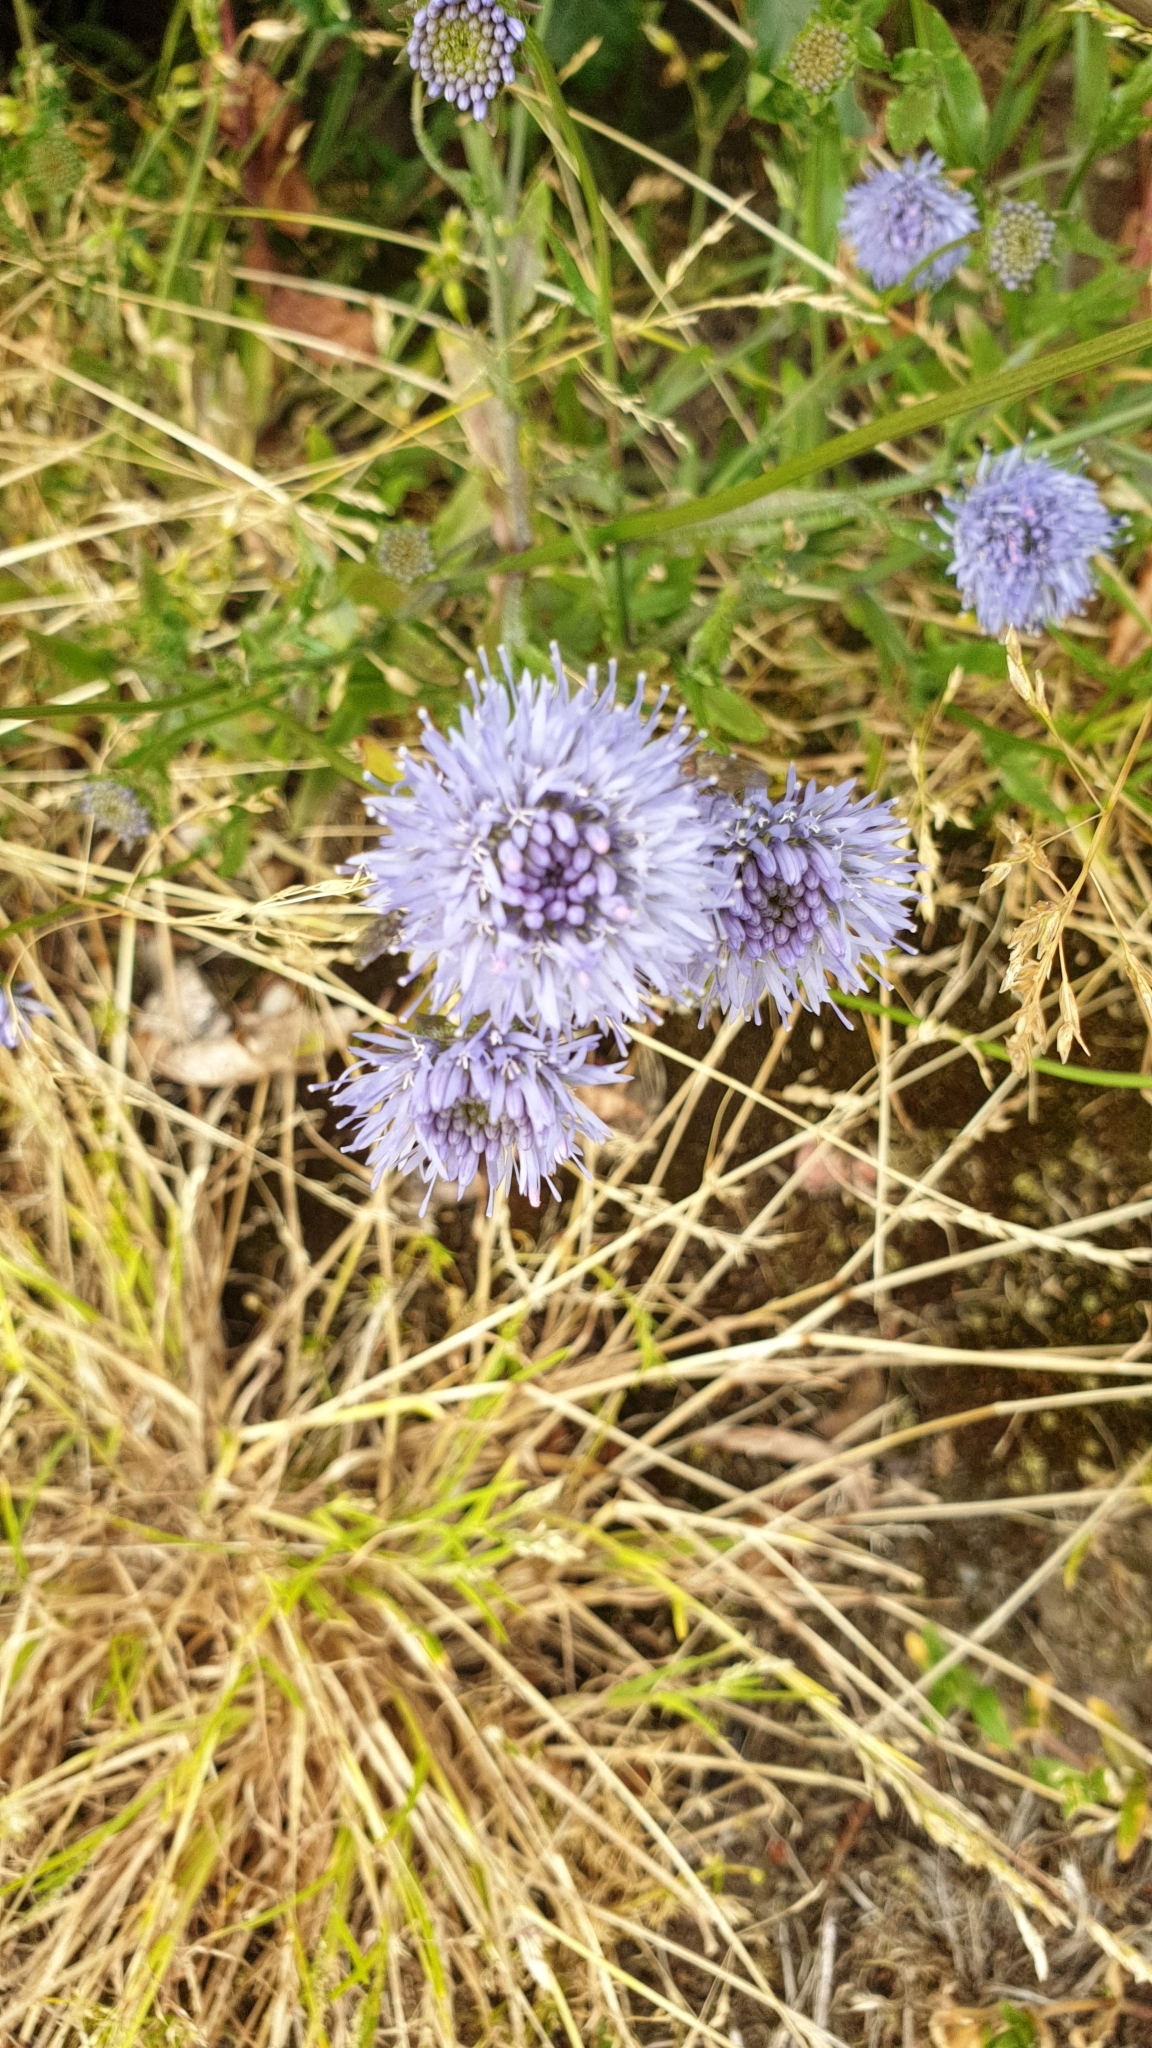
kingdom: Plantae
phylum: Tracheophyta
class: Magnoliopsida
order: Asterales
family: Campanulaceae
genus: Jasione
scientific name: Jasione montana
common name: Sheep's-bit
